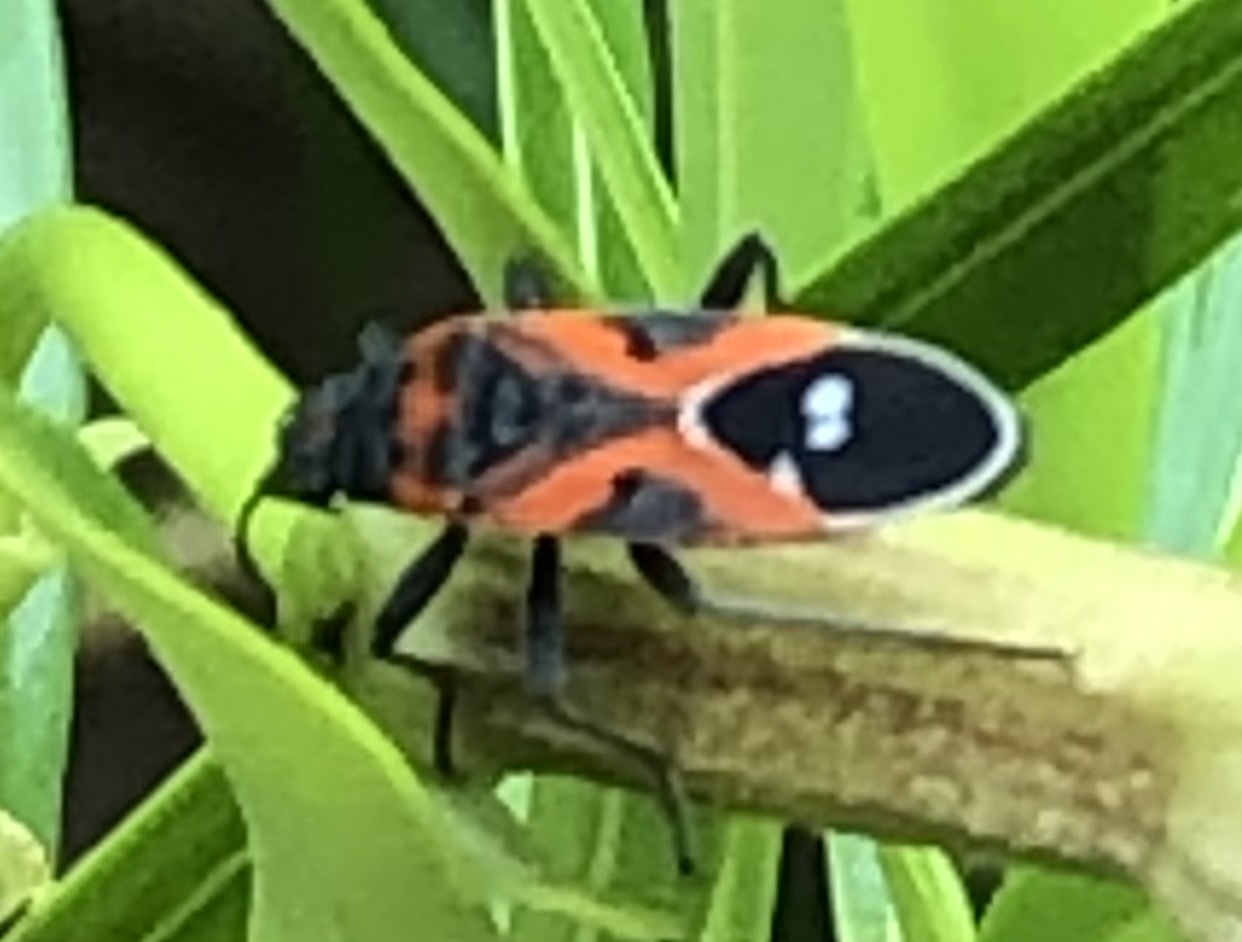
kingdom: Animalia
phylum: Arthropoda
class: Insecta
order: Hemiptera
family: Lygaeidae
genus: Lygaeus
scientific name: Lygaeus reclivatus
